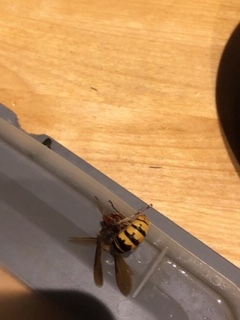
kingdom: Animalia
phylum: Arthropoda
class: Insecta
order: Hymenoptera
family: Vespidae
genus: Vespa
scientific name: Vespa crabro
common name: Hornet
